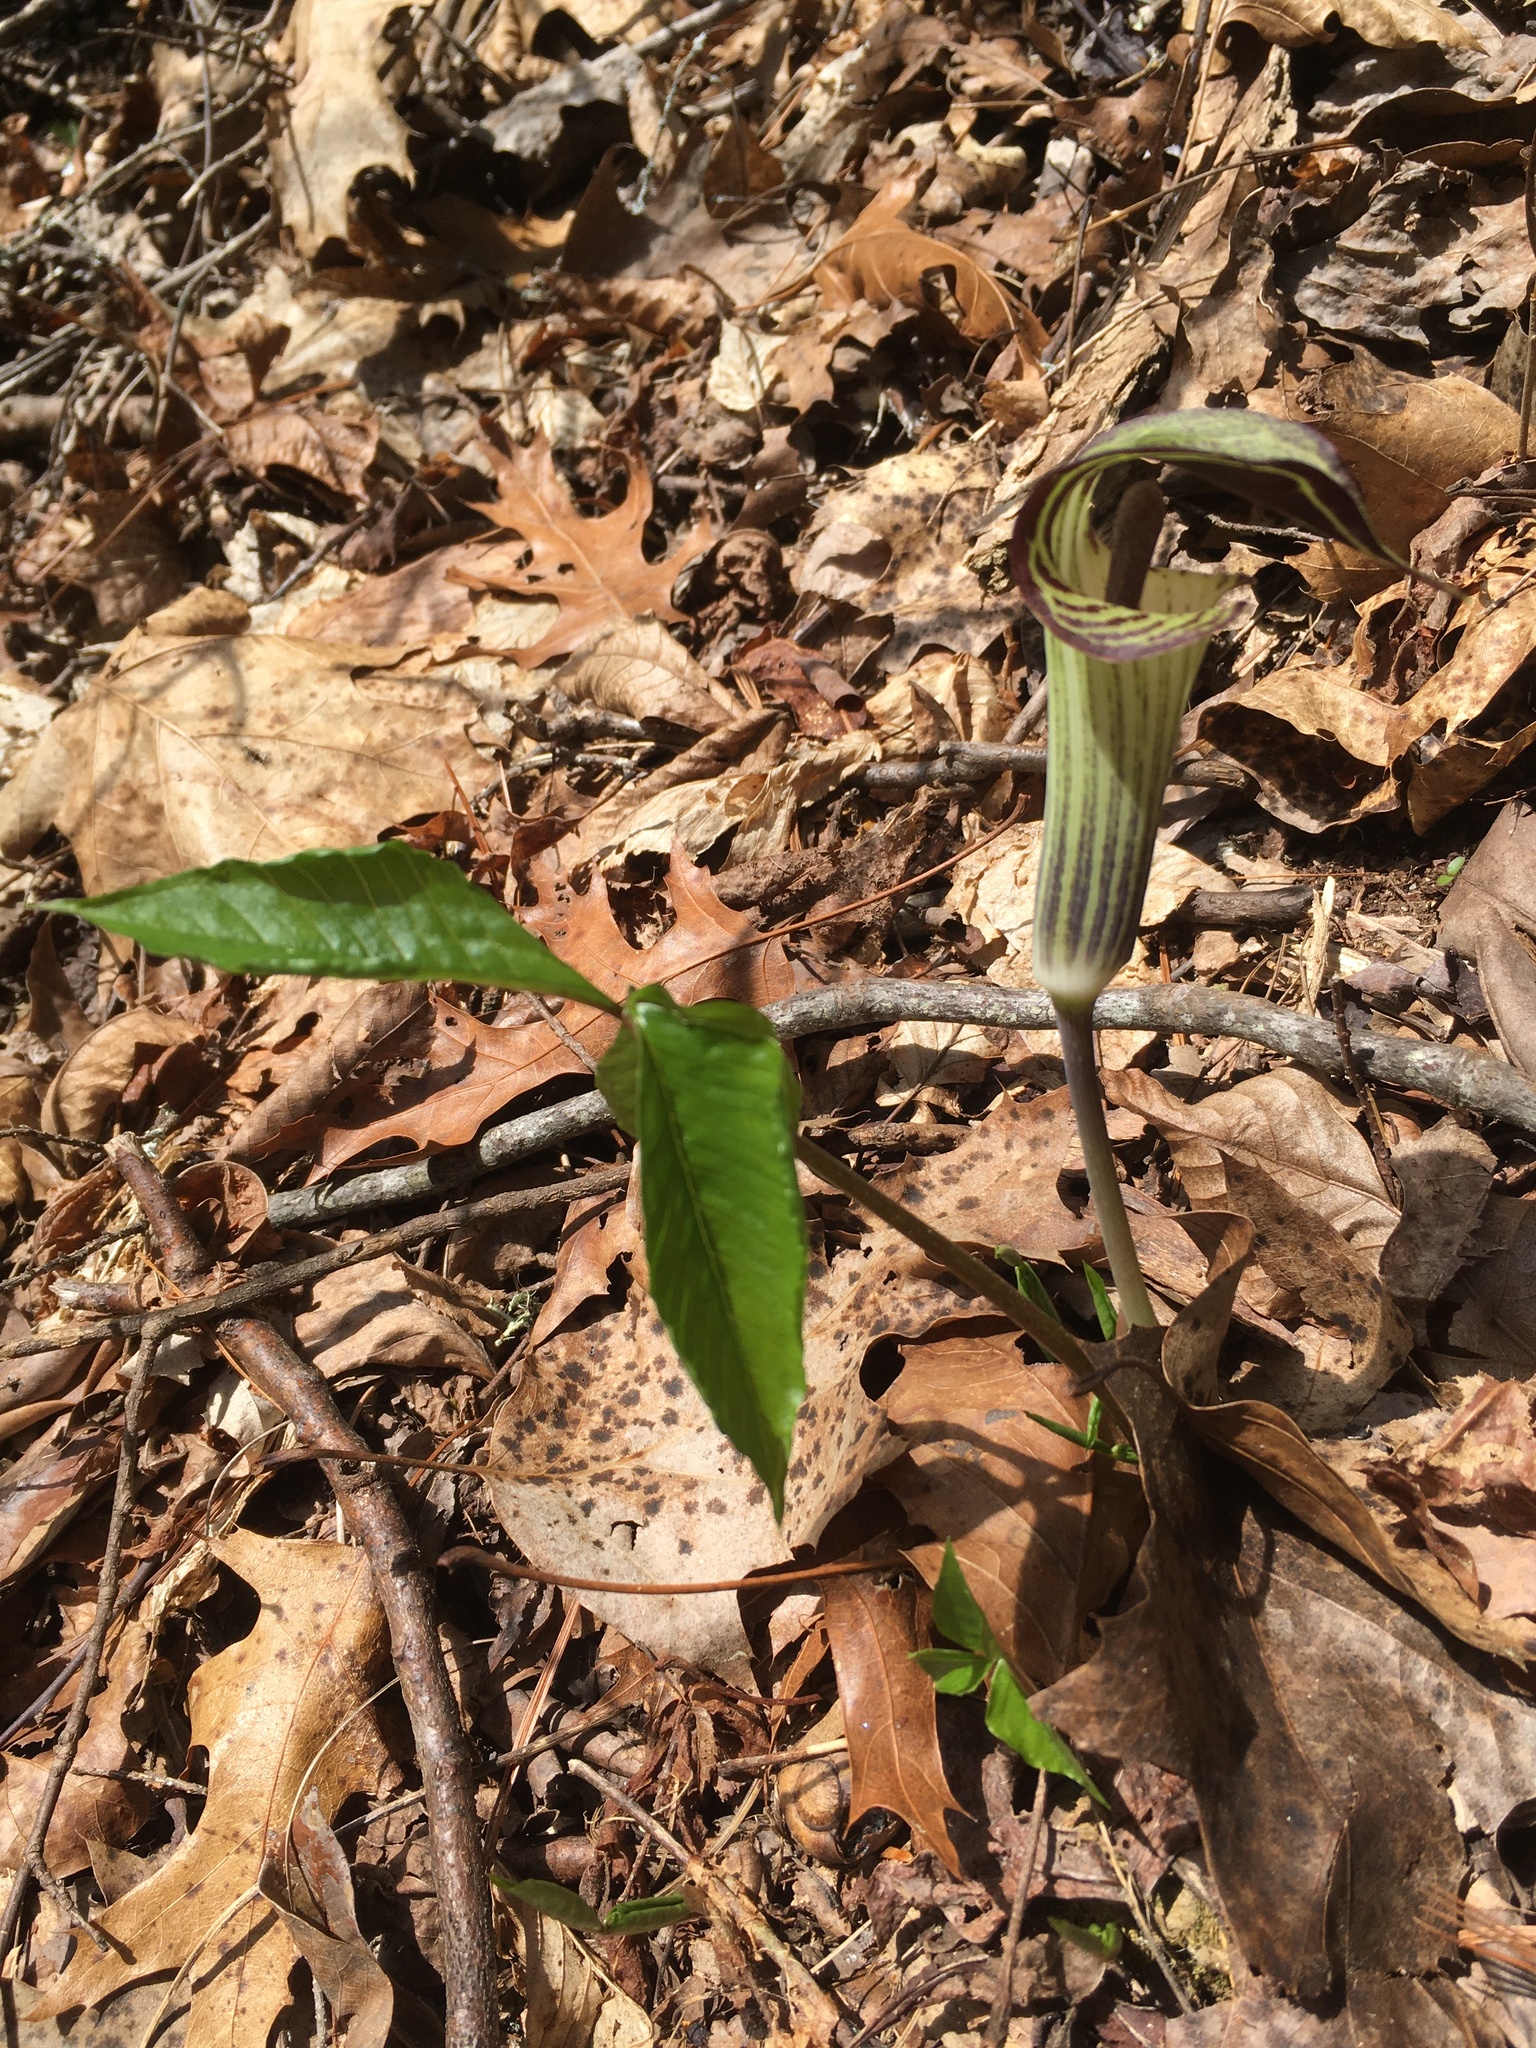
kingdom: Plantae
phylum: Tracheophyta
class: Liliopsida
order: Alismatales
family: Araceae
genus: Arisaema
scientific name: Arisaema triphyllum
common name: Jack-in-the-pulpit
